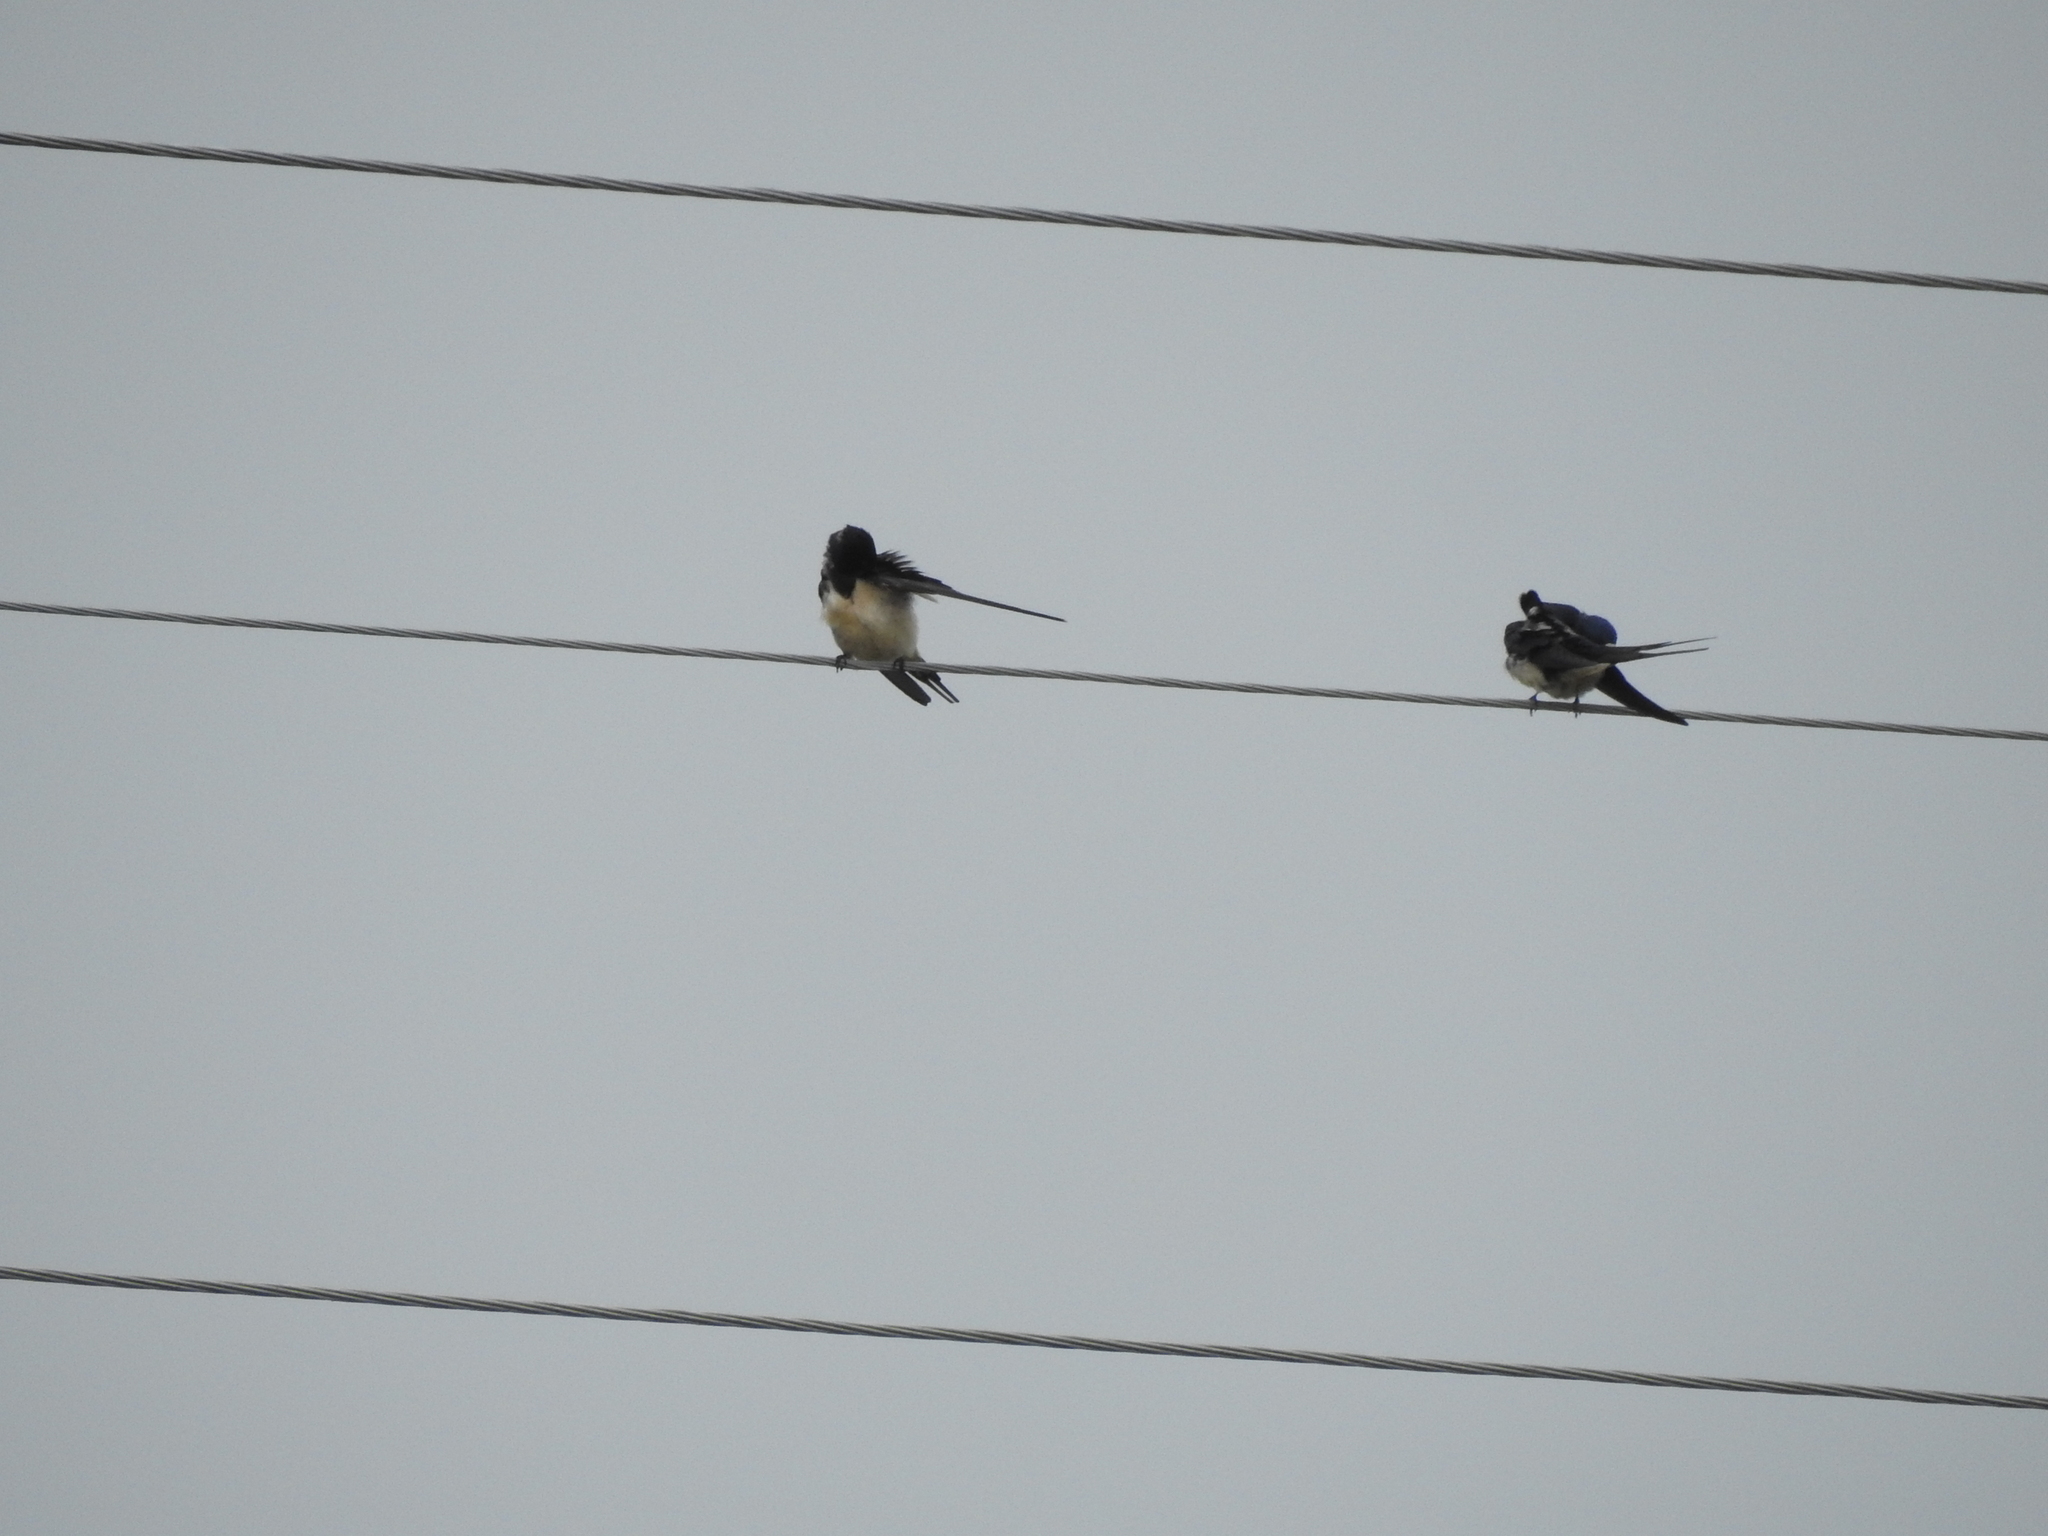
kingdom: Animalia
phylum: Chordata
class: Aves
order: Passeriformes
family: Hirundinidae
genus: Hirundo
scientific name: Hirundo rustica
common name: Barn swallow
